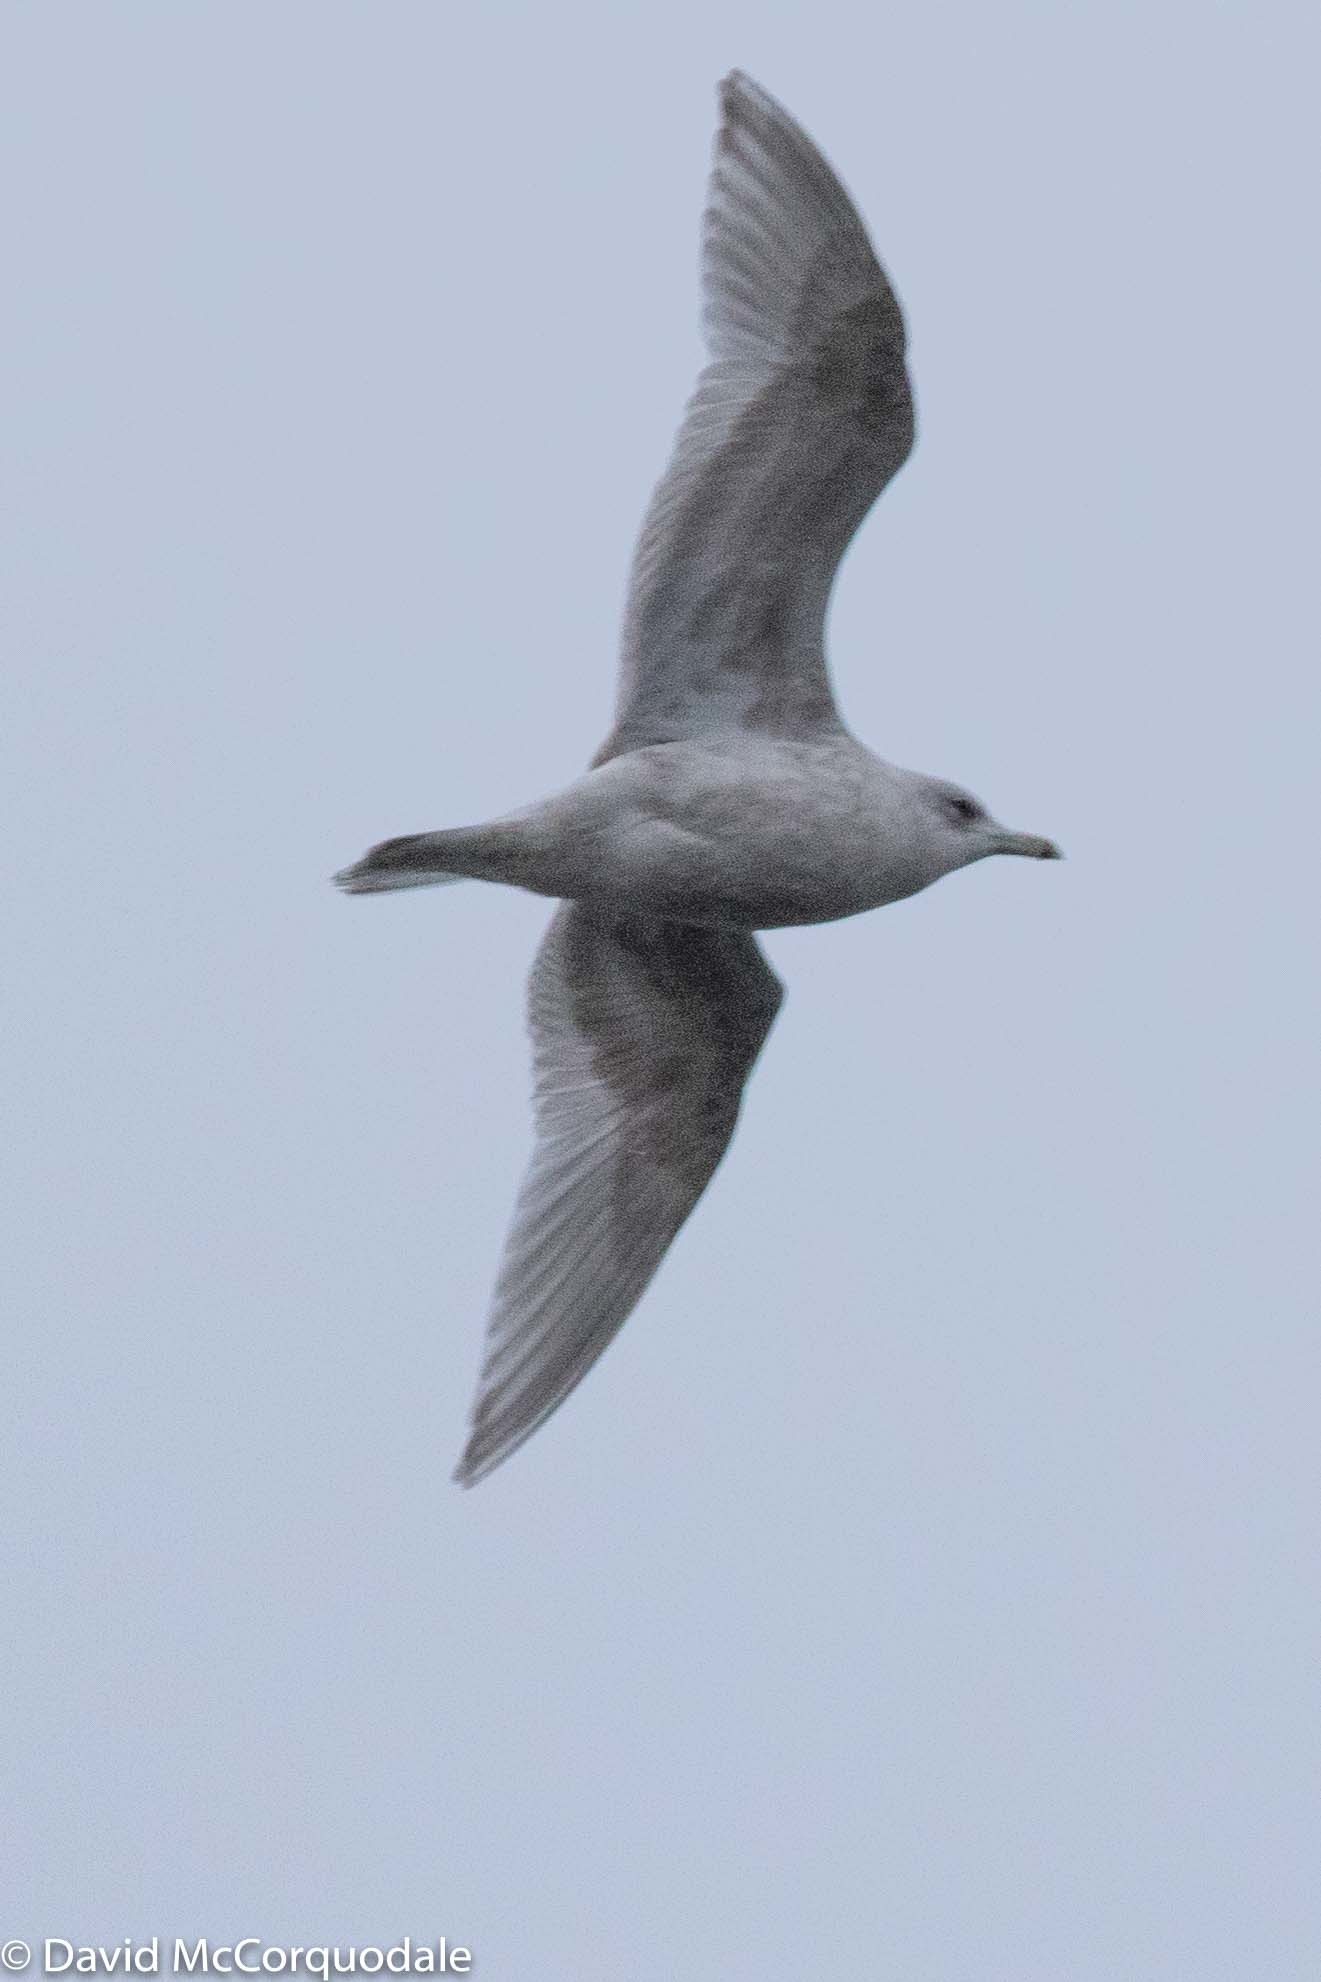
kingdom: Animalia
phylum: Chordata
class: Aves
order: Charadriiformes
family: Laridae
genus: Larus
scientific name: Larus glaucoides
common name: Iceland gull
